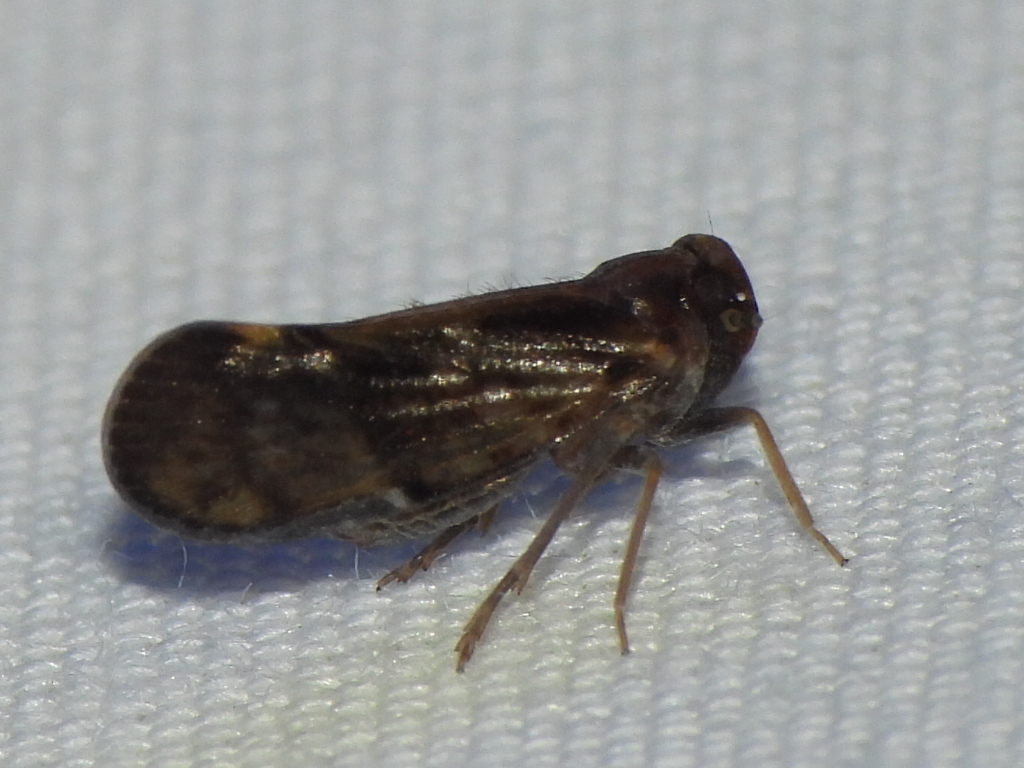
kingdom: Animalia
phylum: Arthropoda
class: Insecta
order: Hemiptera
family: Cixiidae
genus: Pintalia
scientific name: Pintalia vibex
